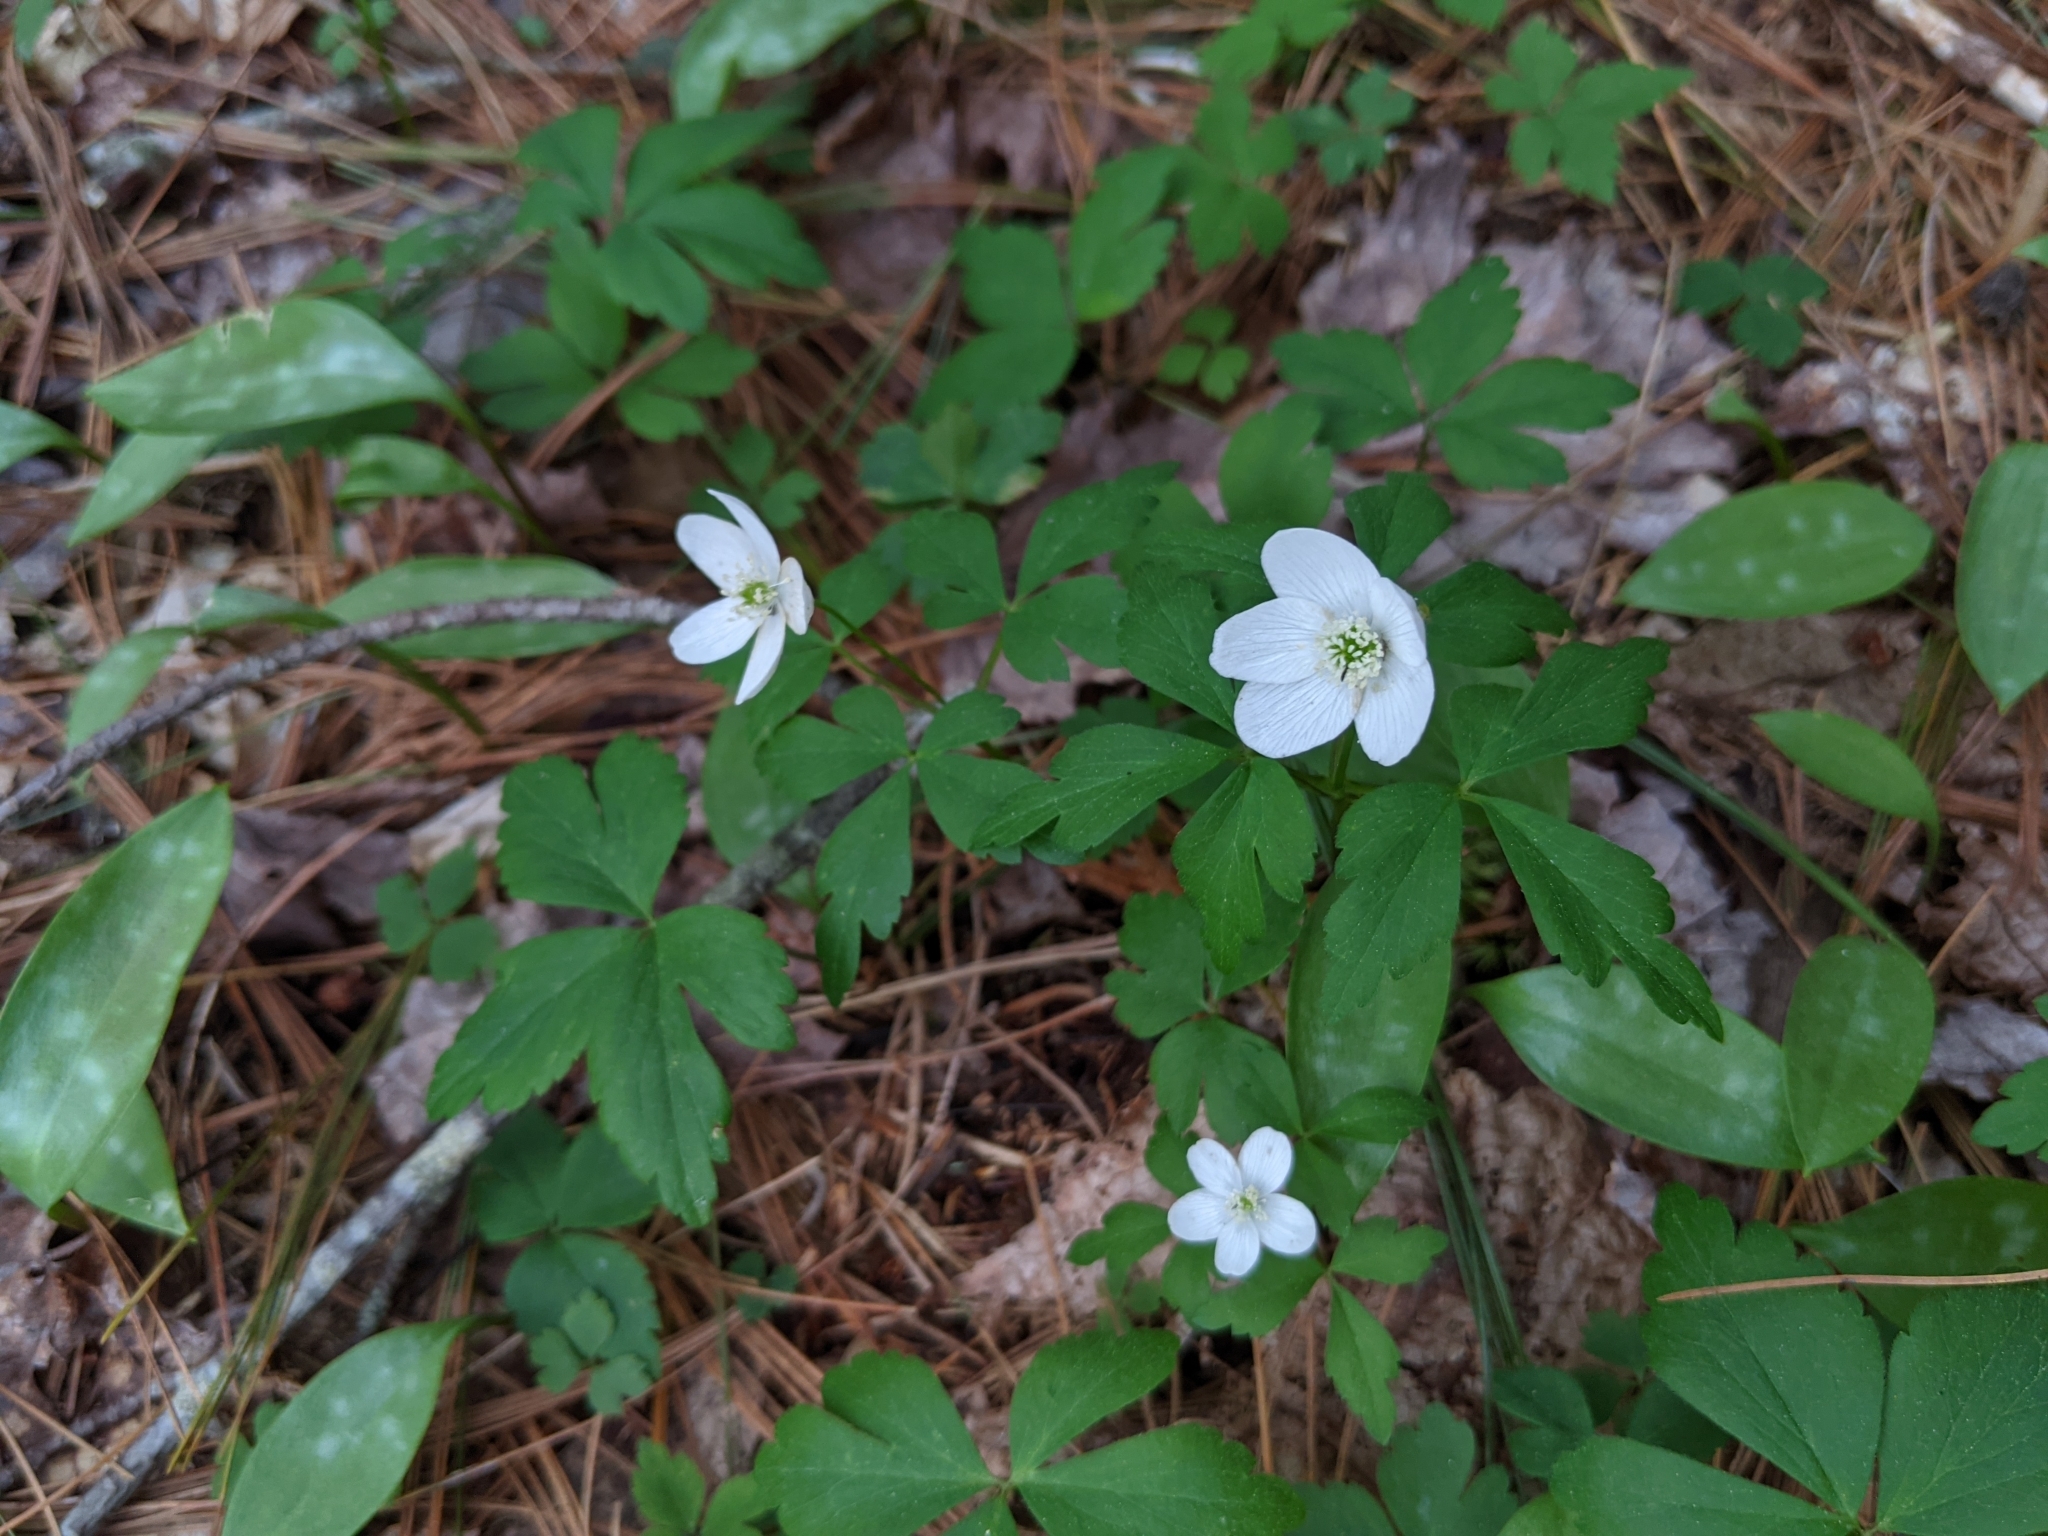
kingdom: Plantae
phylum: Tracheophyta
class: Magnoliopsida
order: Ranunculales
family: Ranunculaceae
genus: Anemone
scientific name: Anemone quinquefolia
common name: Wood anemone
